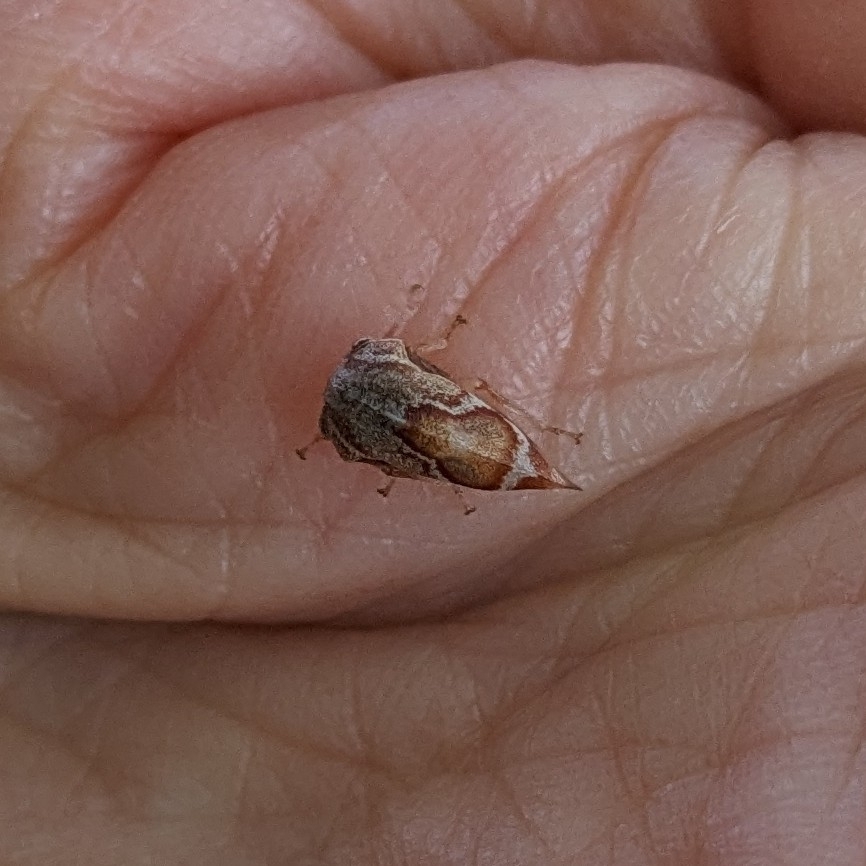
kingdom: Animalia
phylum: Arthropoda
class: Insecta
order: Hemiptera
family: Membracidae
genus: Xantholobus
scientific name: Xantholobus mutica
